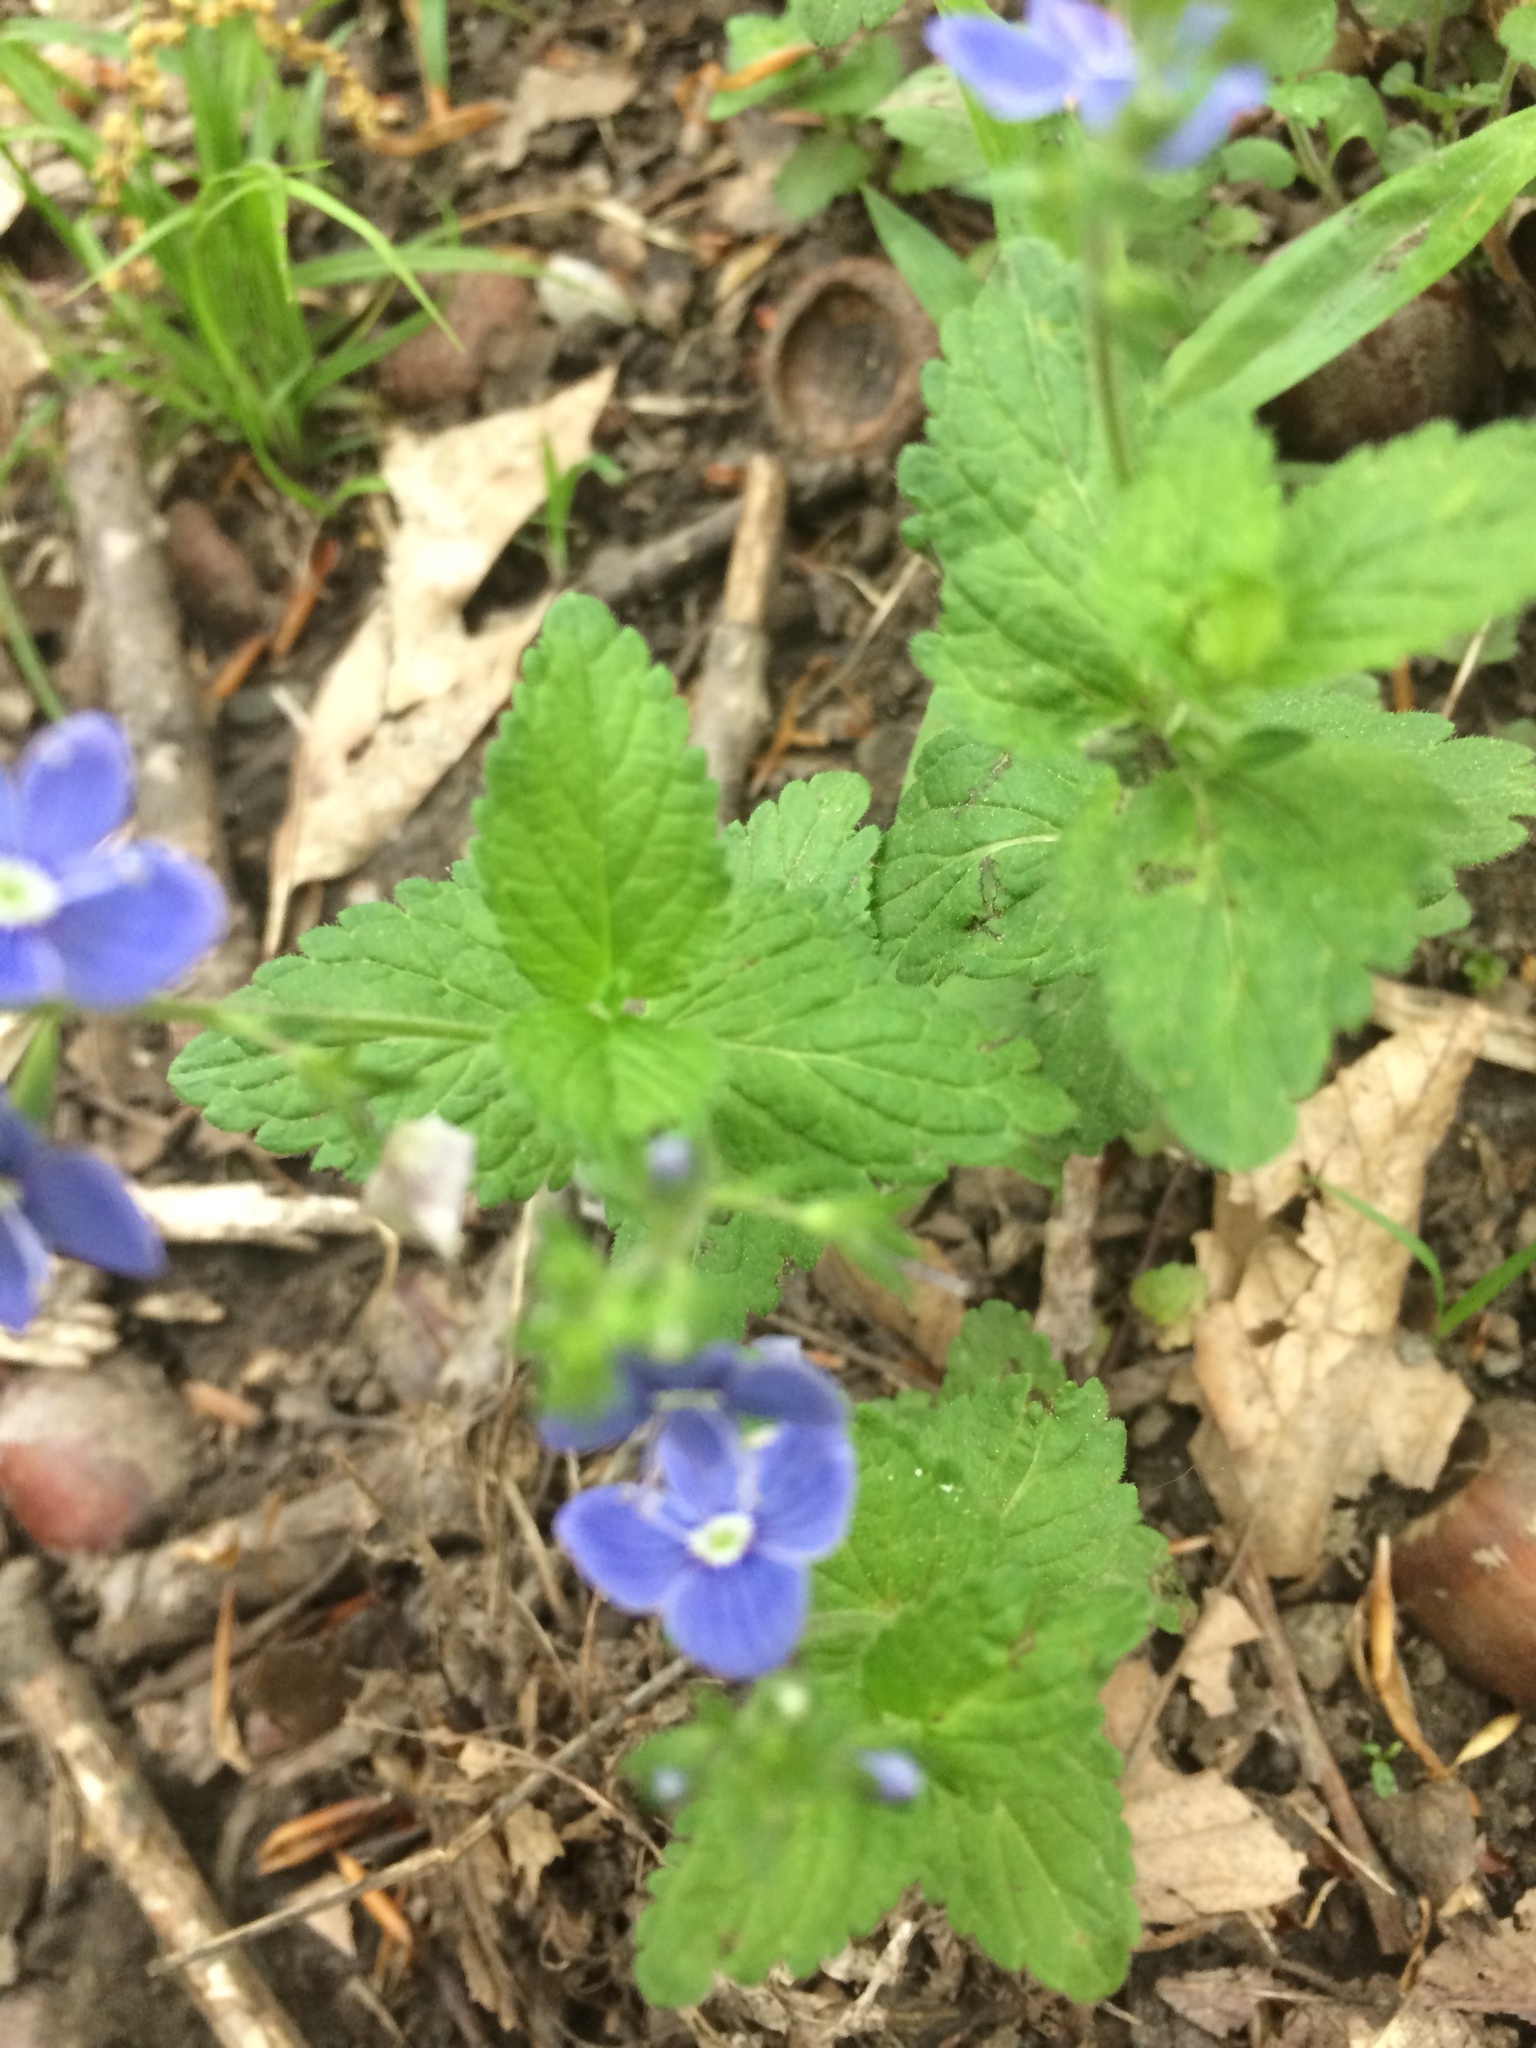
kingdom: Plantae
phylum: Tracheophyta
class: Magnoliopsida
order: Lamiales
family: Plantaginaceae
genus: Veronica
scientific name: Veronica chamaedrys
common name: Germander speedwell
